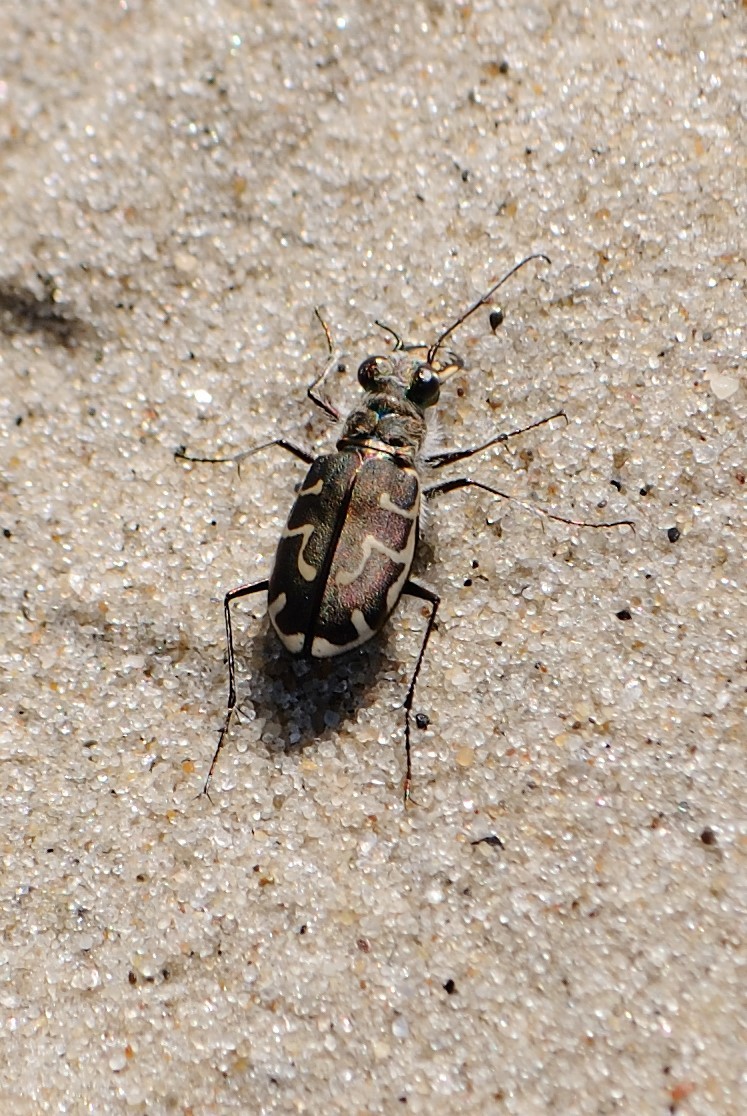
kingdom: Animalia
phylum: Arthropoda
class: Insecta
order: Coleoptera
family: Carabidae
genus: Cicindela
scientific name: Cicindela hirticollis
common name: Hairy-necked tiger beetle
